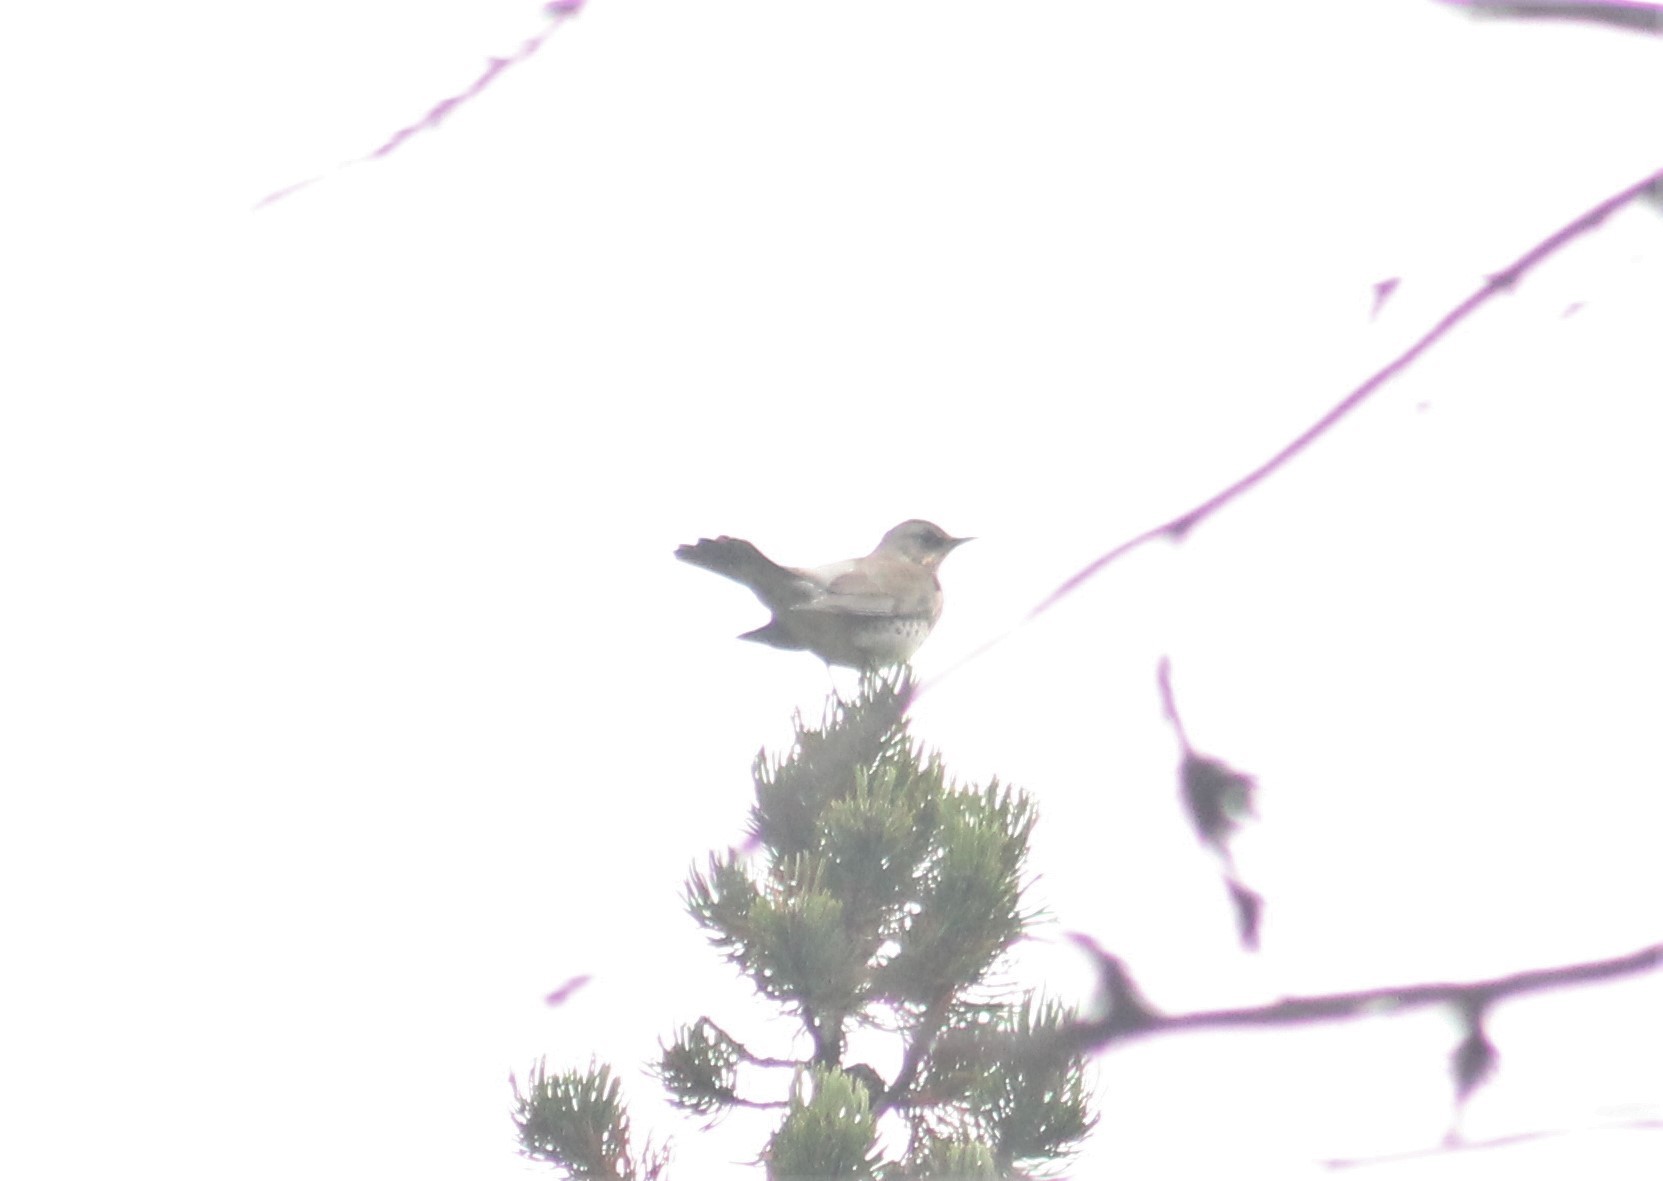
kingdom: Animalia
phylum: Chordata
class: Aves
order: Passeriformes
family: Turdidae
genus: Turdus
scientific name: Turdus pilaris
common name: Fieldfare
